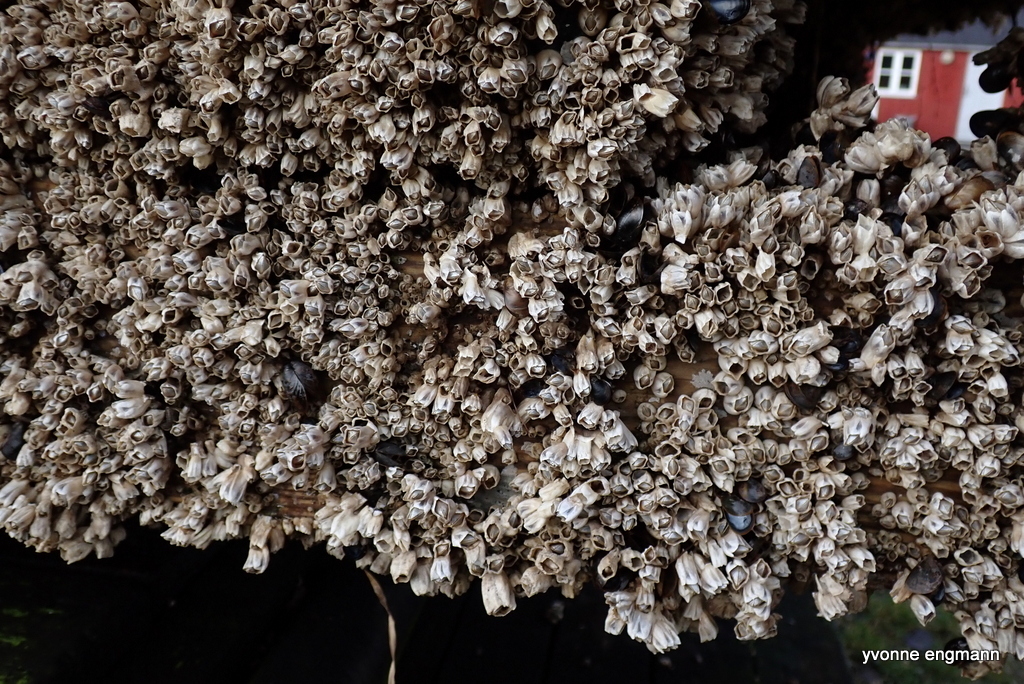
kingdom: Animalia
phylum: Arthropoda
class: Maxillopoda
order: Sessilia
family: Balanidae
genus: Amphibalanus
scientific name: Amphibalanus improvisus
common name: Bay barnacle
